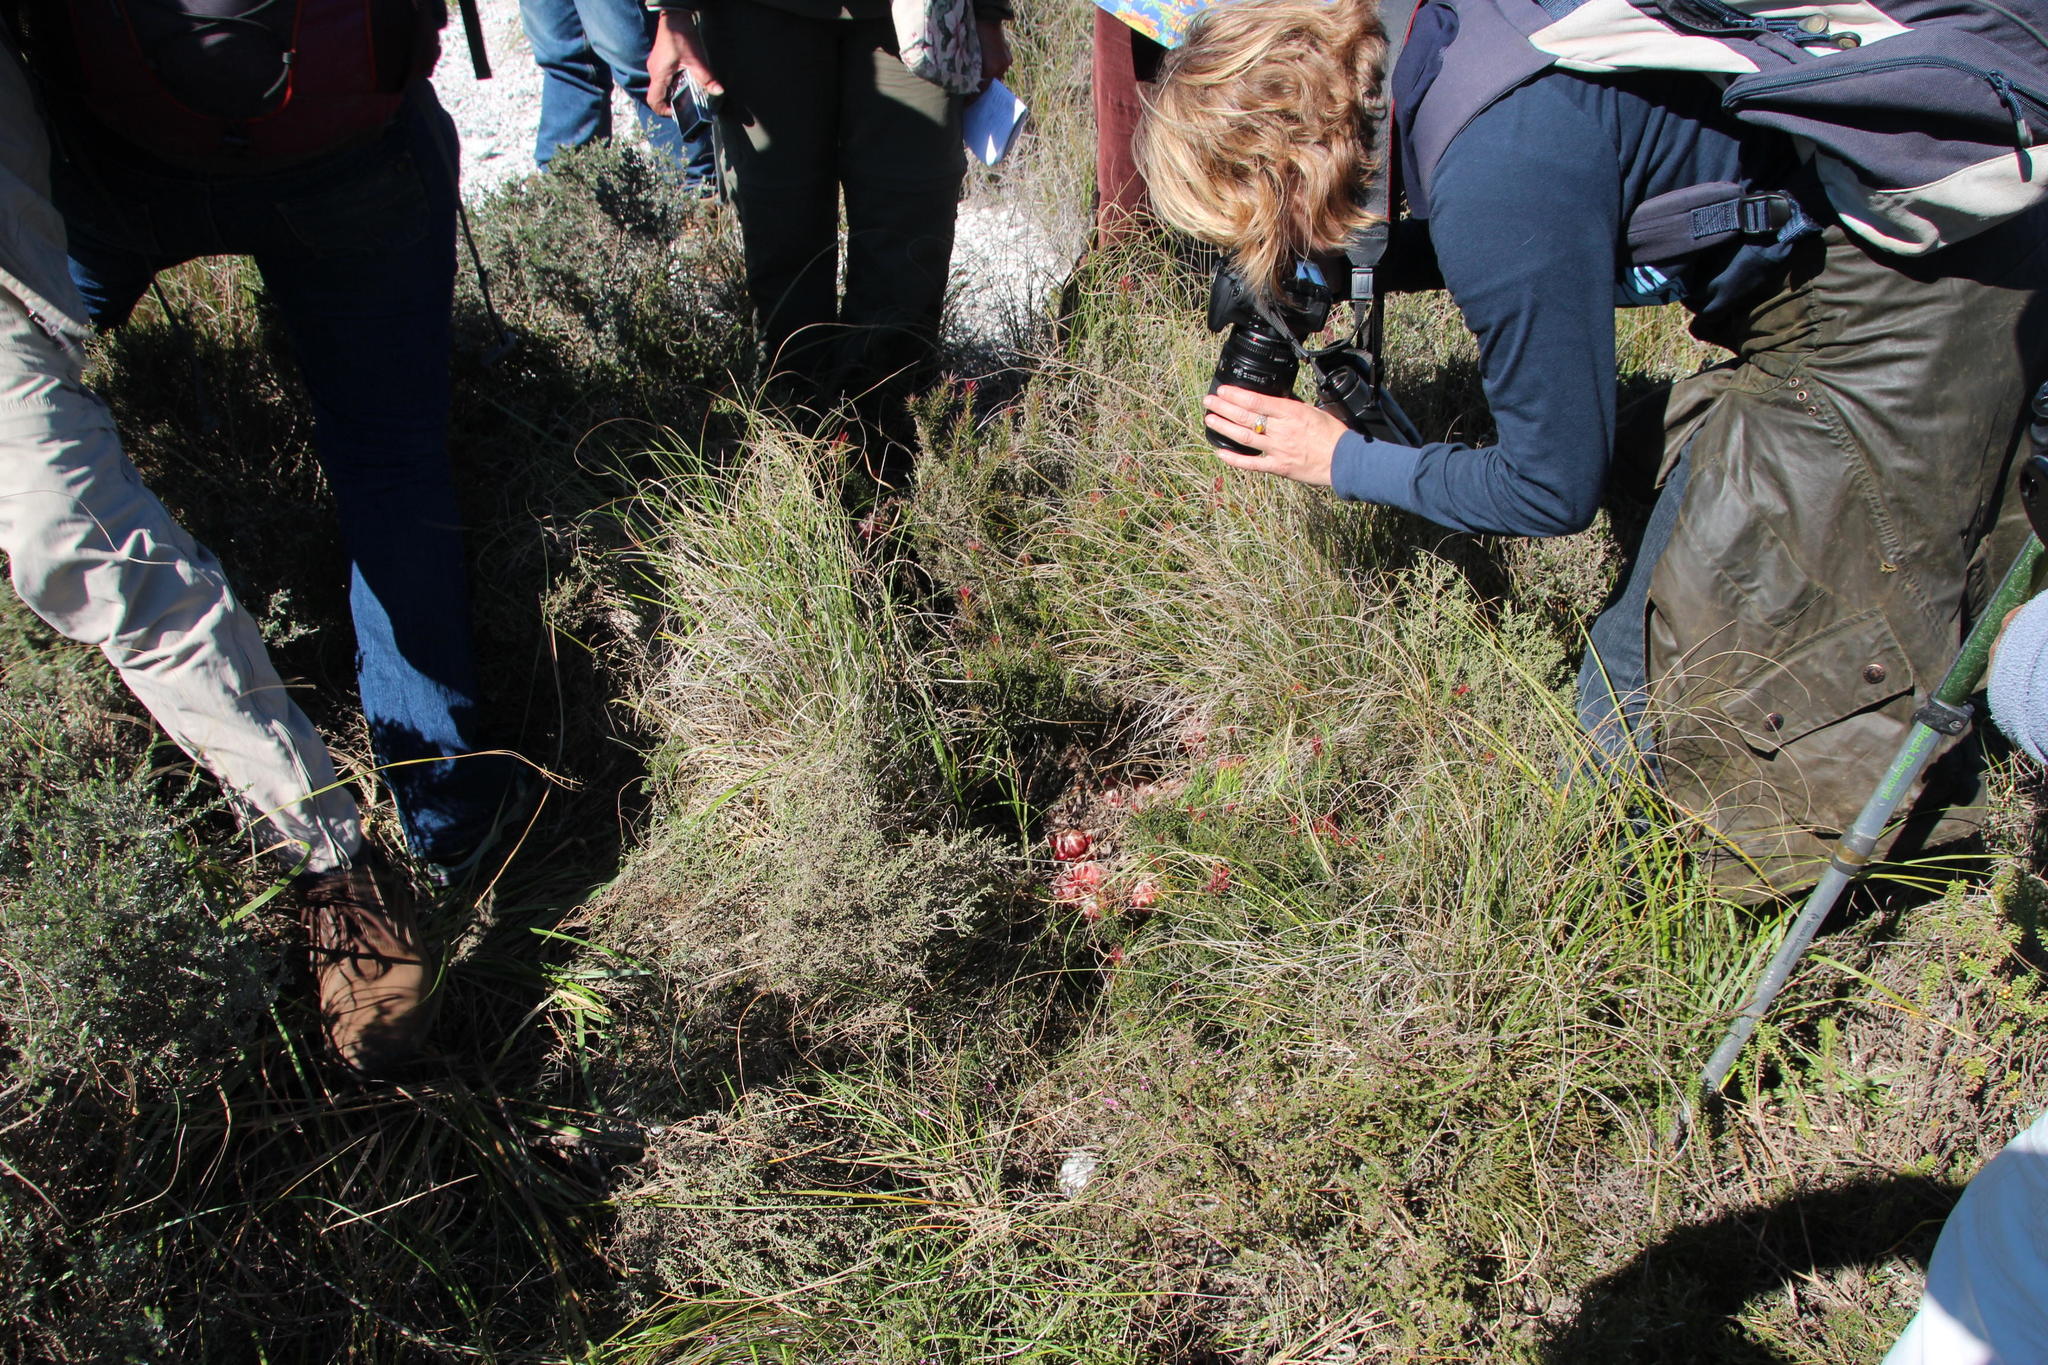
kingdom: Plantae
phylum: Tracheophyta
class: Magnoliopsida
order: Proteales
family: Proteaceae
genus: Protea
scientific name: Protea decurrens
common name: Linear-leaf sugarbush
